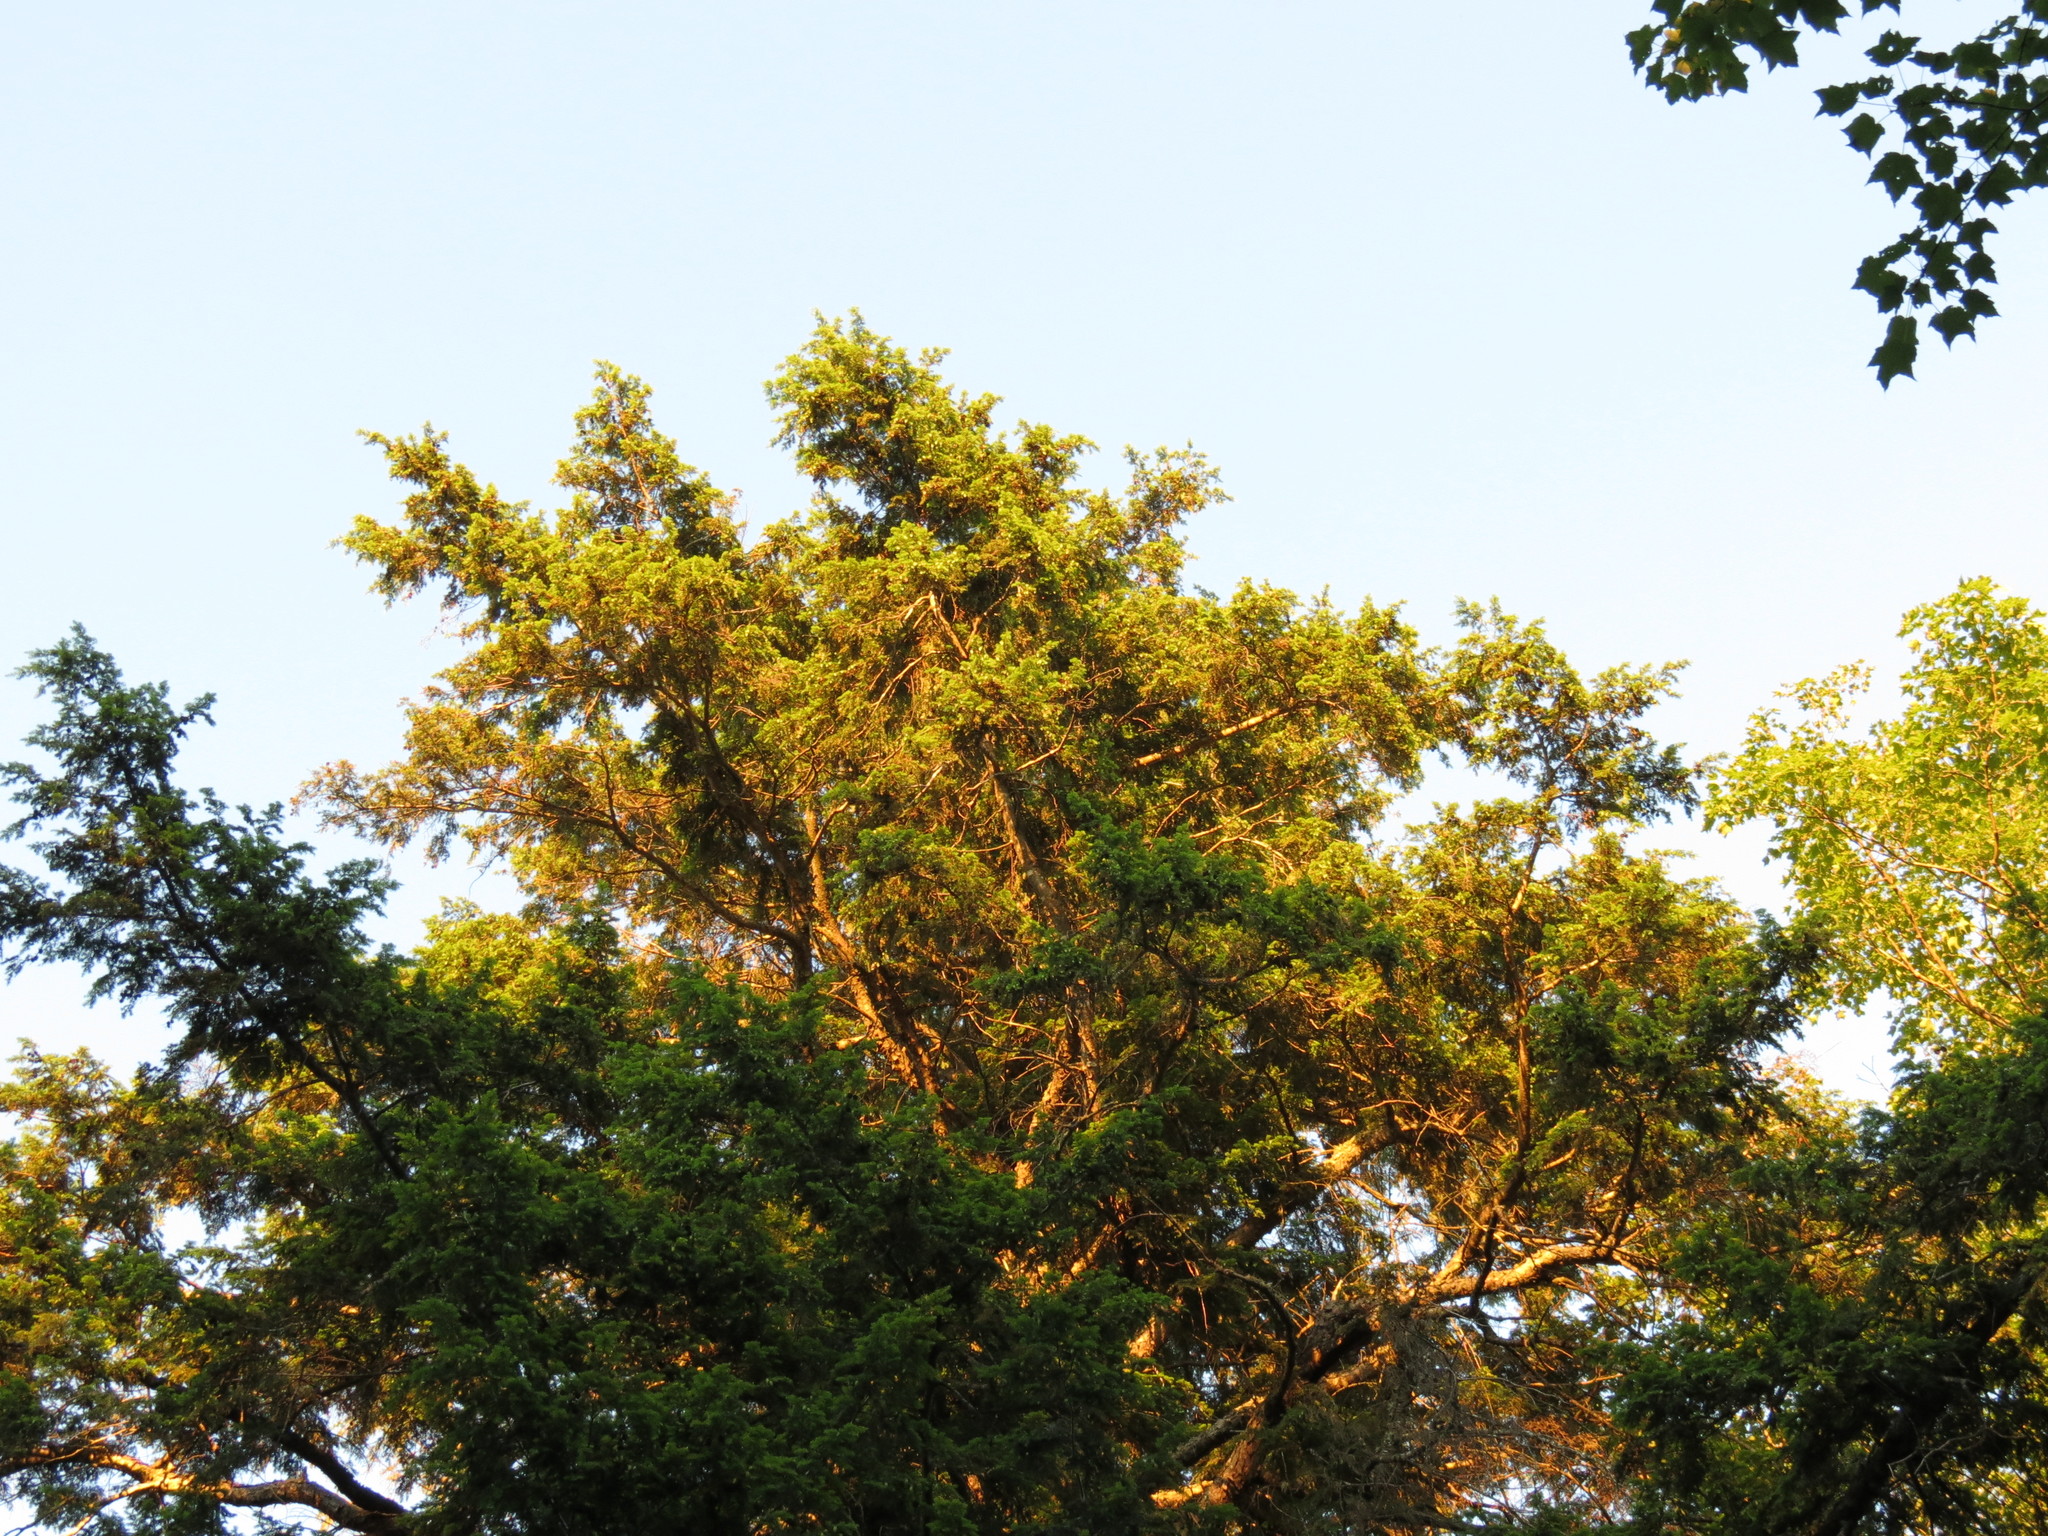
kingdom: Plantae
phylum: Tracheophyta
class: Pinopsida
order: Pinales
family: Pinaceae
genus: Tsuga
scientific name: Tsuga canadensis
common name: Eastern hemlock
